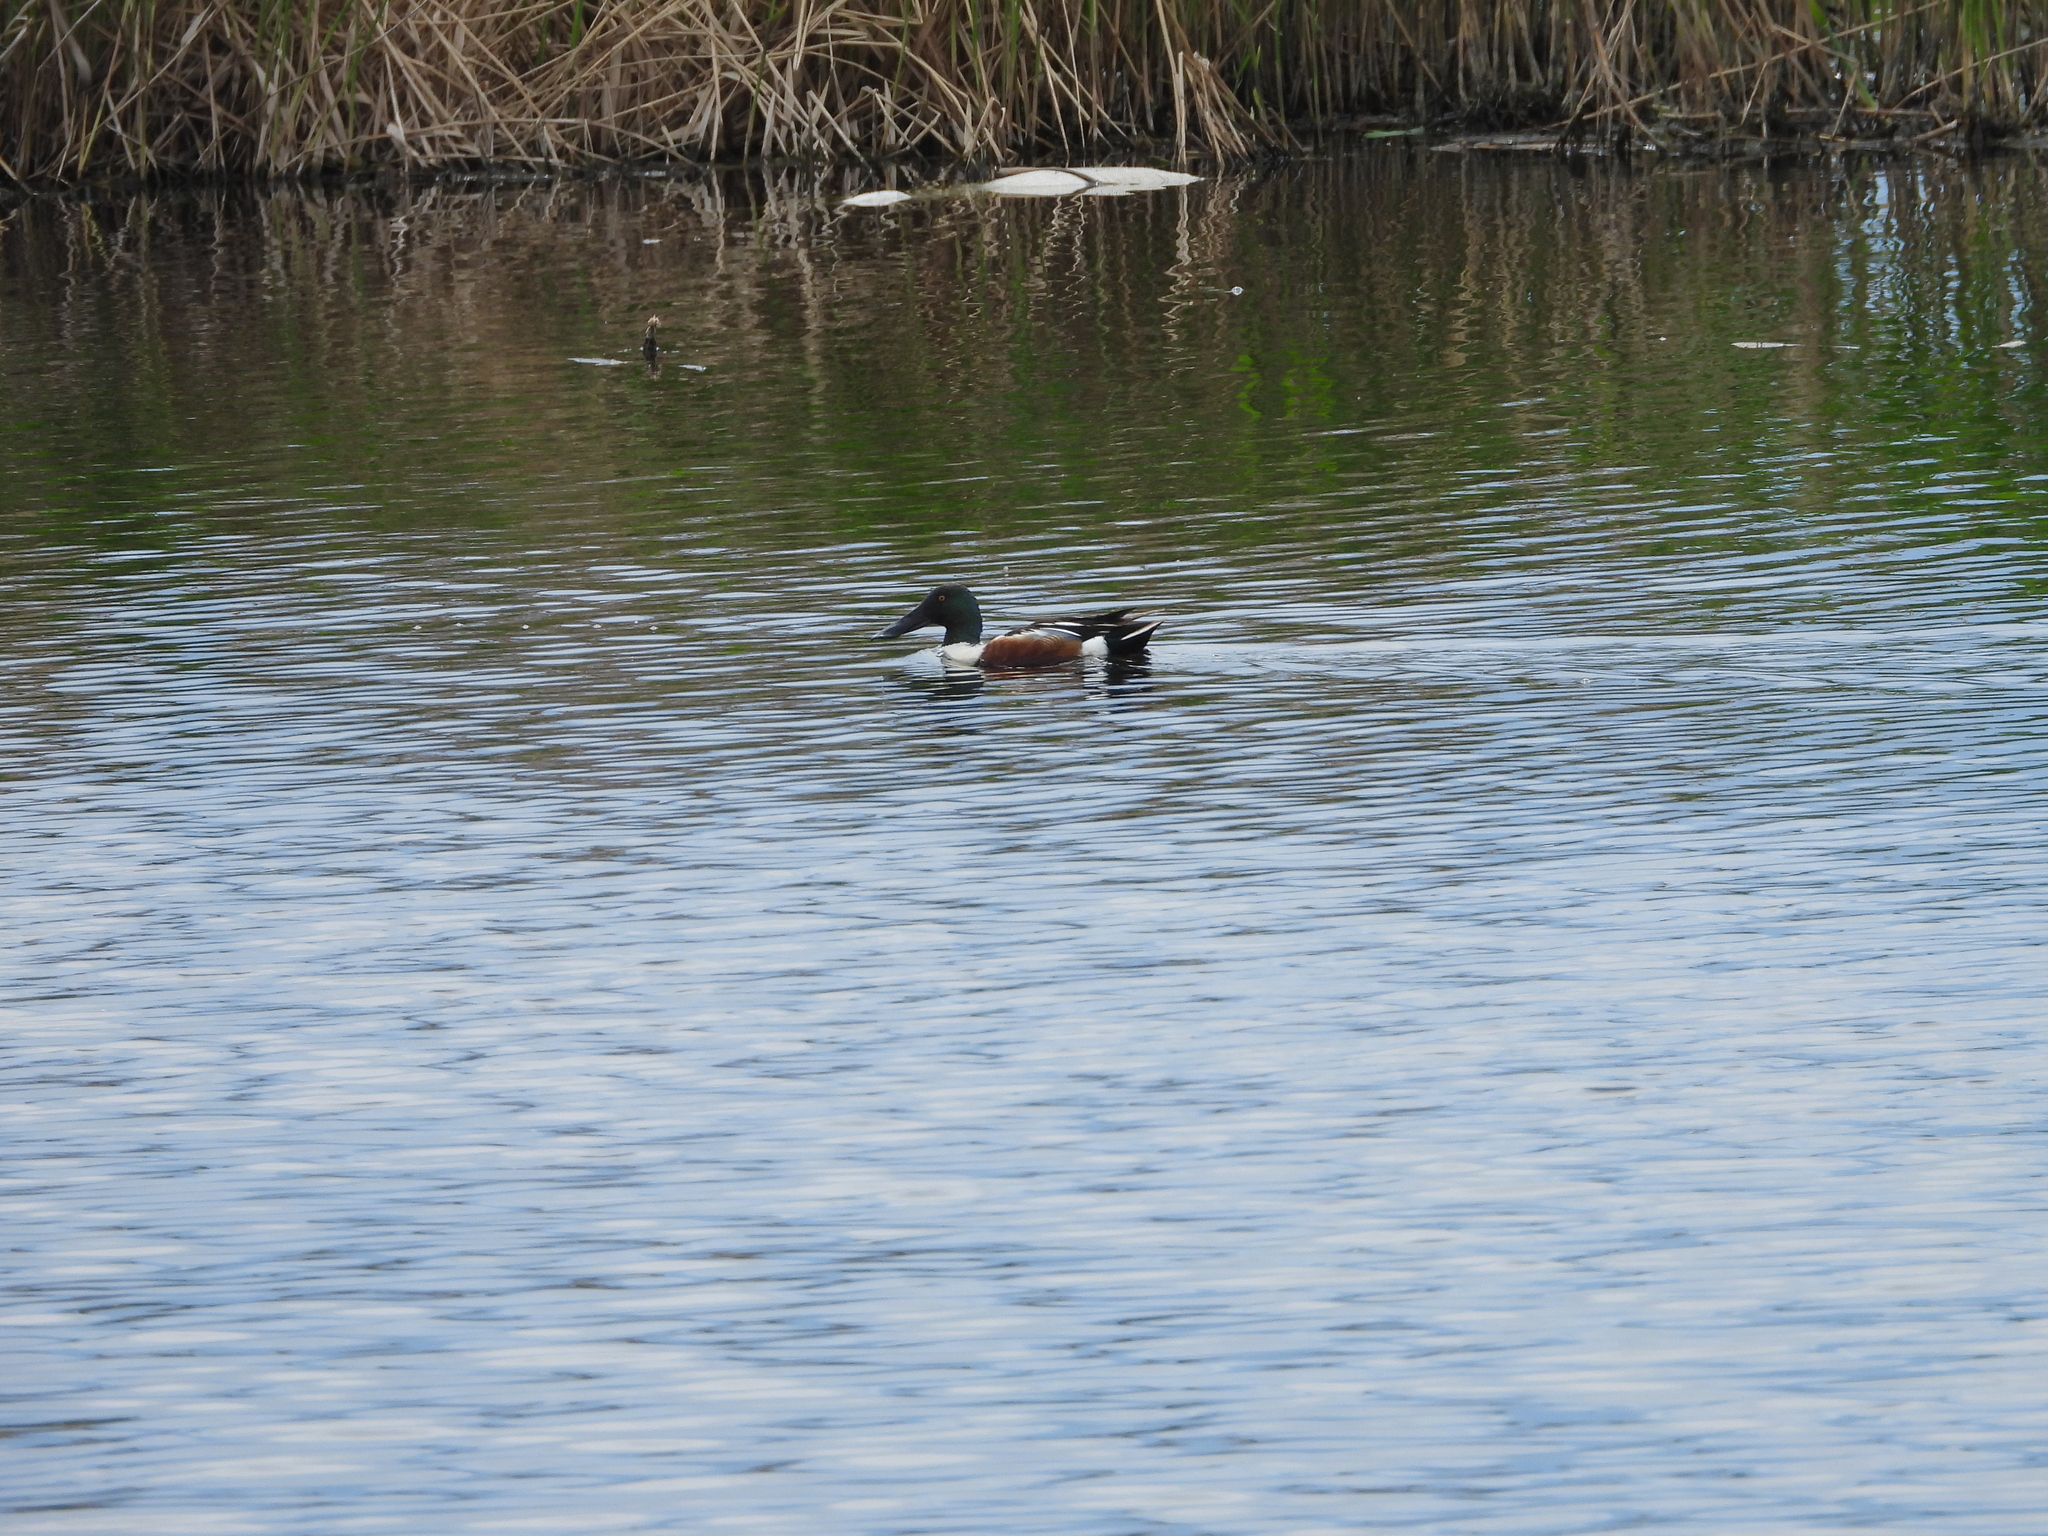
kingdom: Animalia
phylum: Chordata
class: Aves
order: Anseriformes
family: Anatidae
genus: Spatula
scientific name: Spatula clypeata
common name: Northern shoveler
